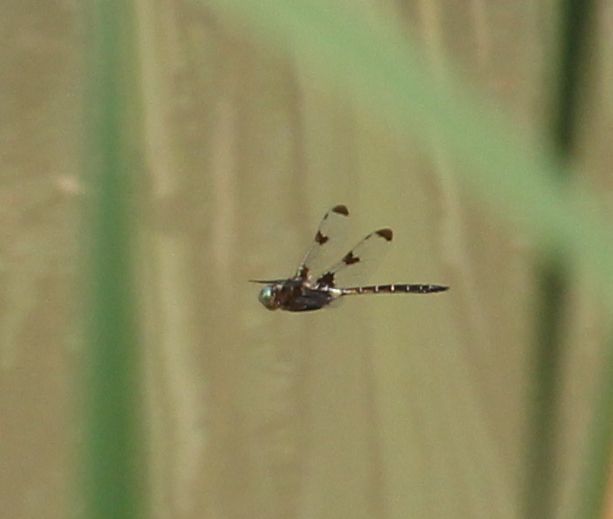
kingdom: Animalia
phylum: Arthropoda
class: Insecta
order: Odonata
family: Corduliidae
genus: Epitheca
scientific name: Epitheca princeps
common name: Prince baskettail
